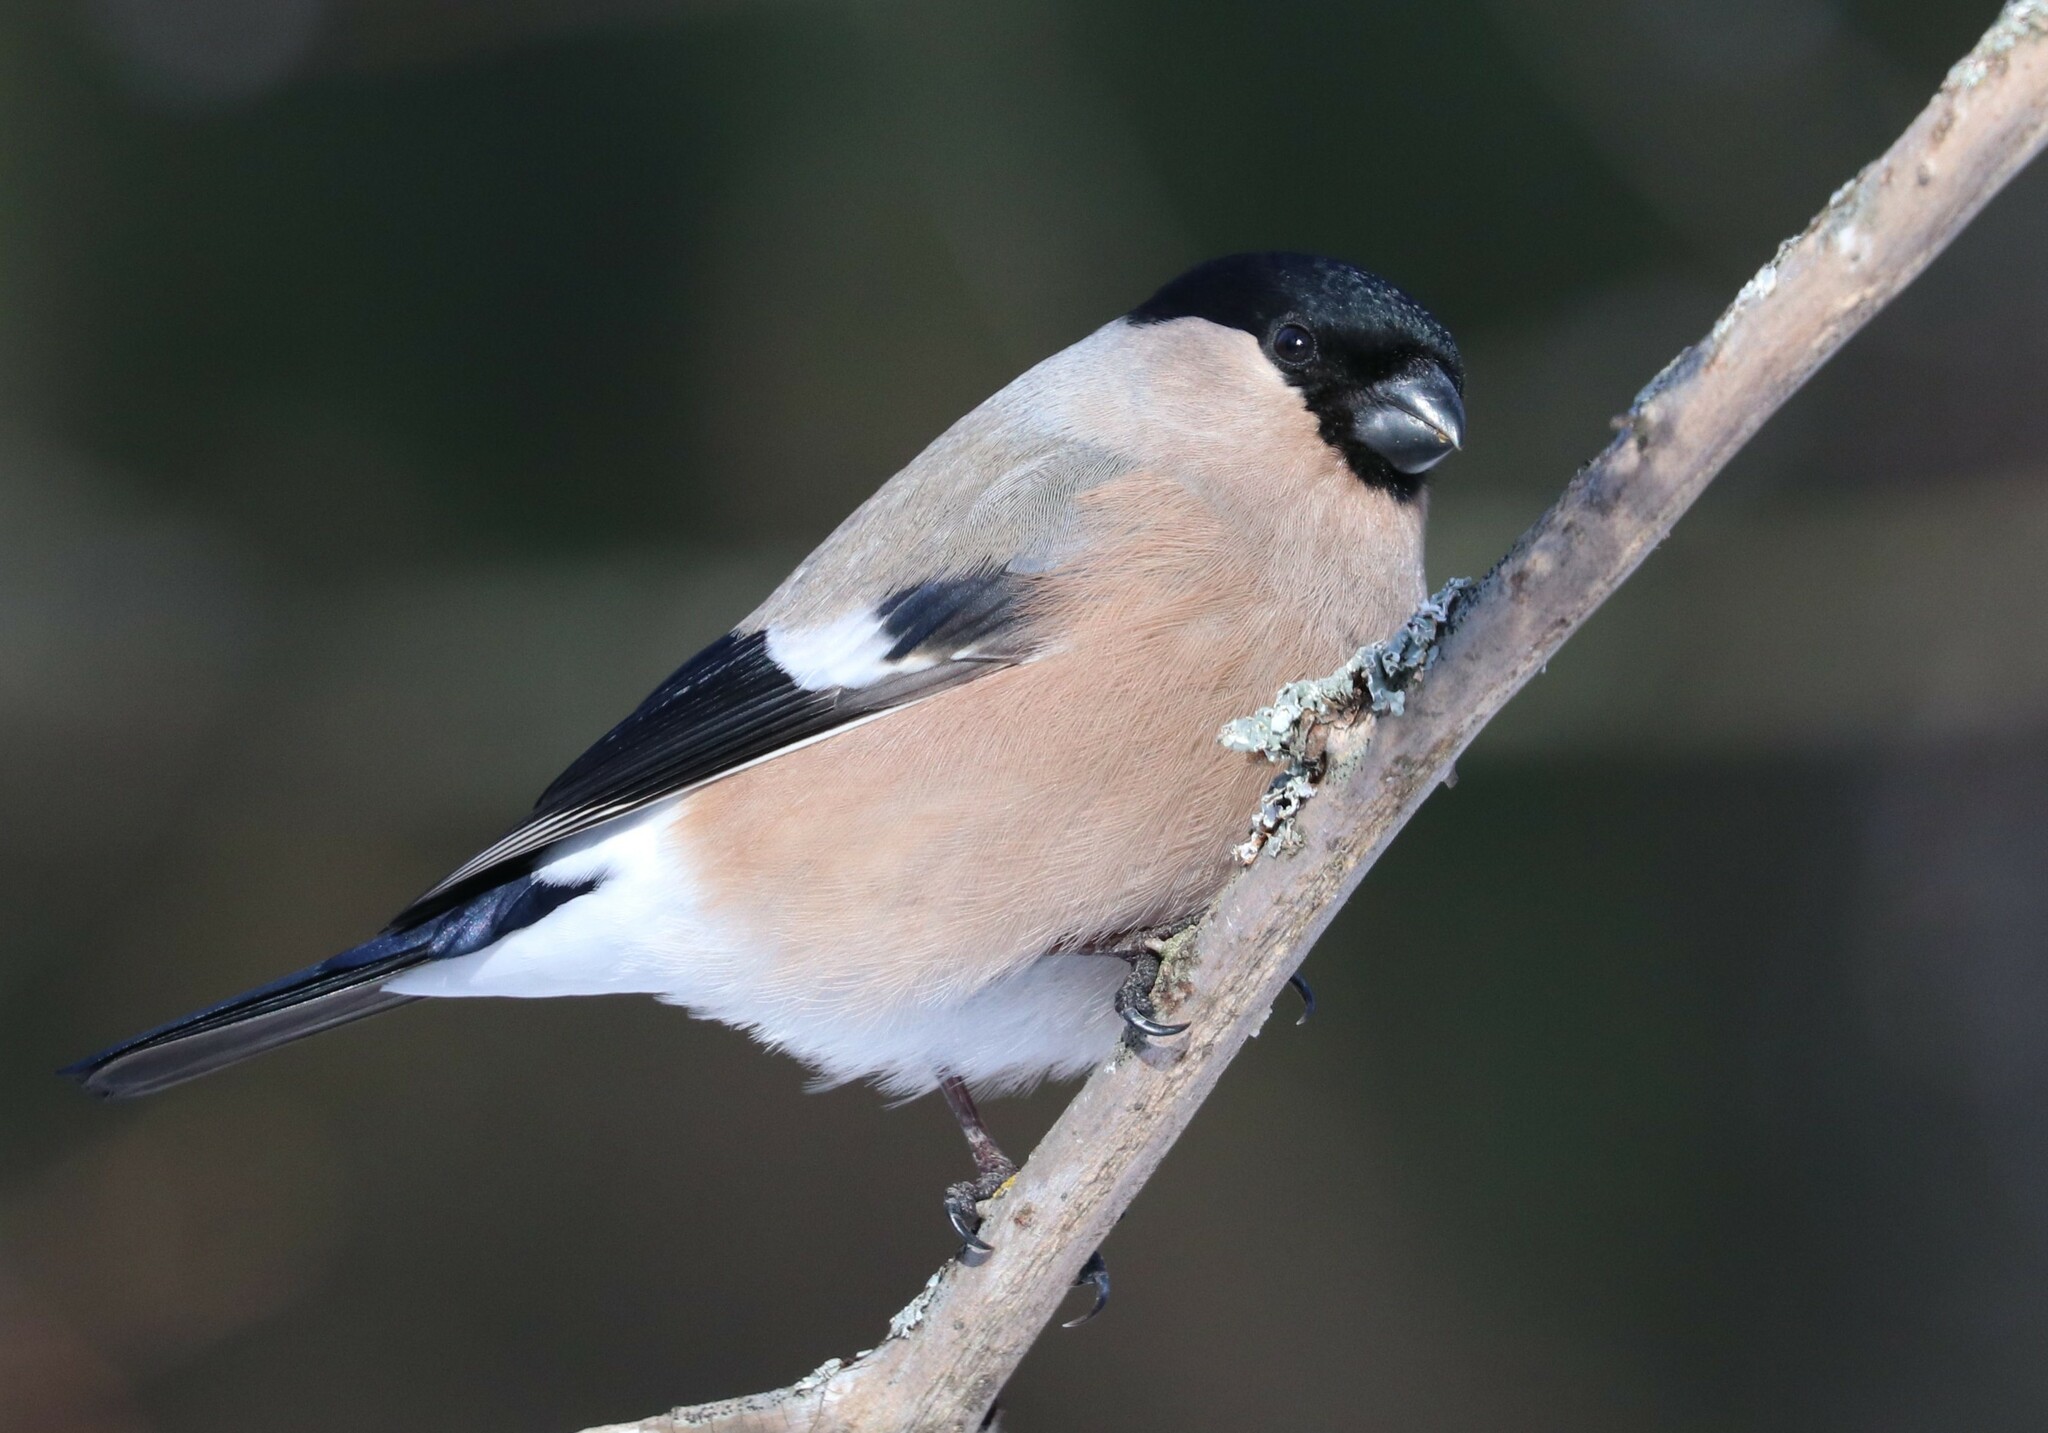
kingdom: Animalia
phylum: Chordata
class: Aves
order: Passeriformes
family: Fringillidae
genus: Pyrrhula
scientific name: Pyrrhula pyrrhula
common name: Eurasian bullfinch
